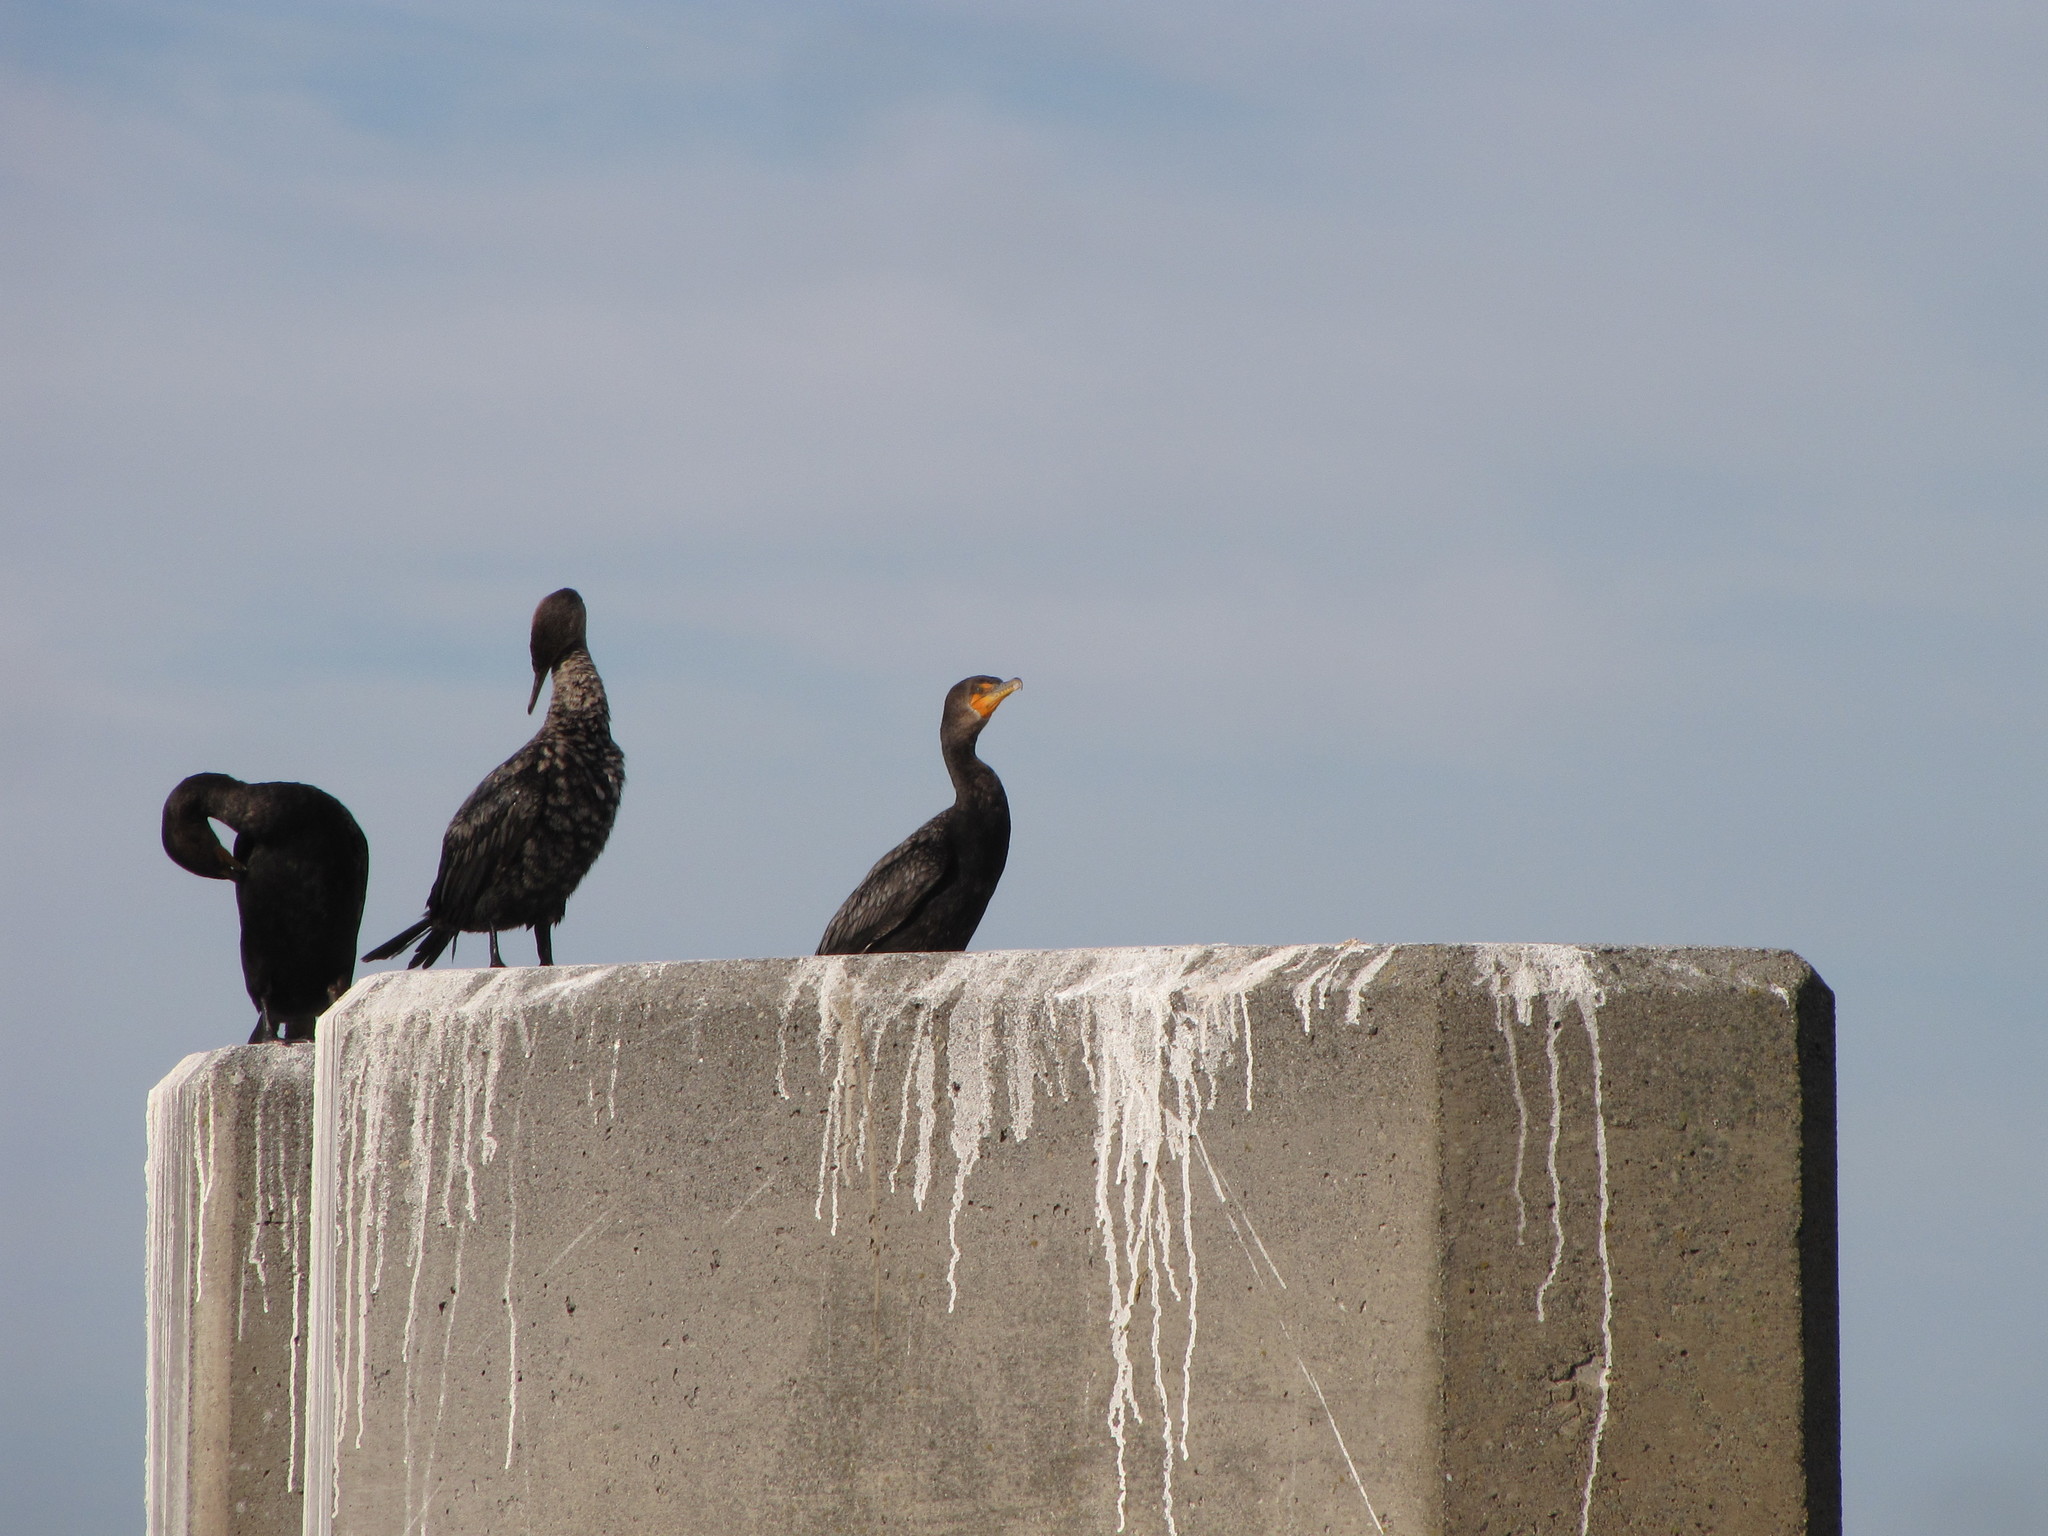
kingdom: Animalia
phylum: Chordata
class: Aves
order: Suliformes
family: Phalacrocoracidae
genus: Phalacrocorax
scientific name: Phalacrocorax auritus
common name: Double-crested cormorant
